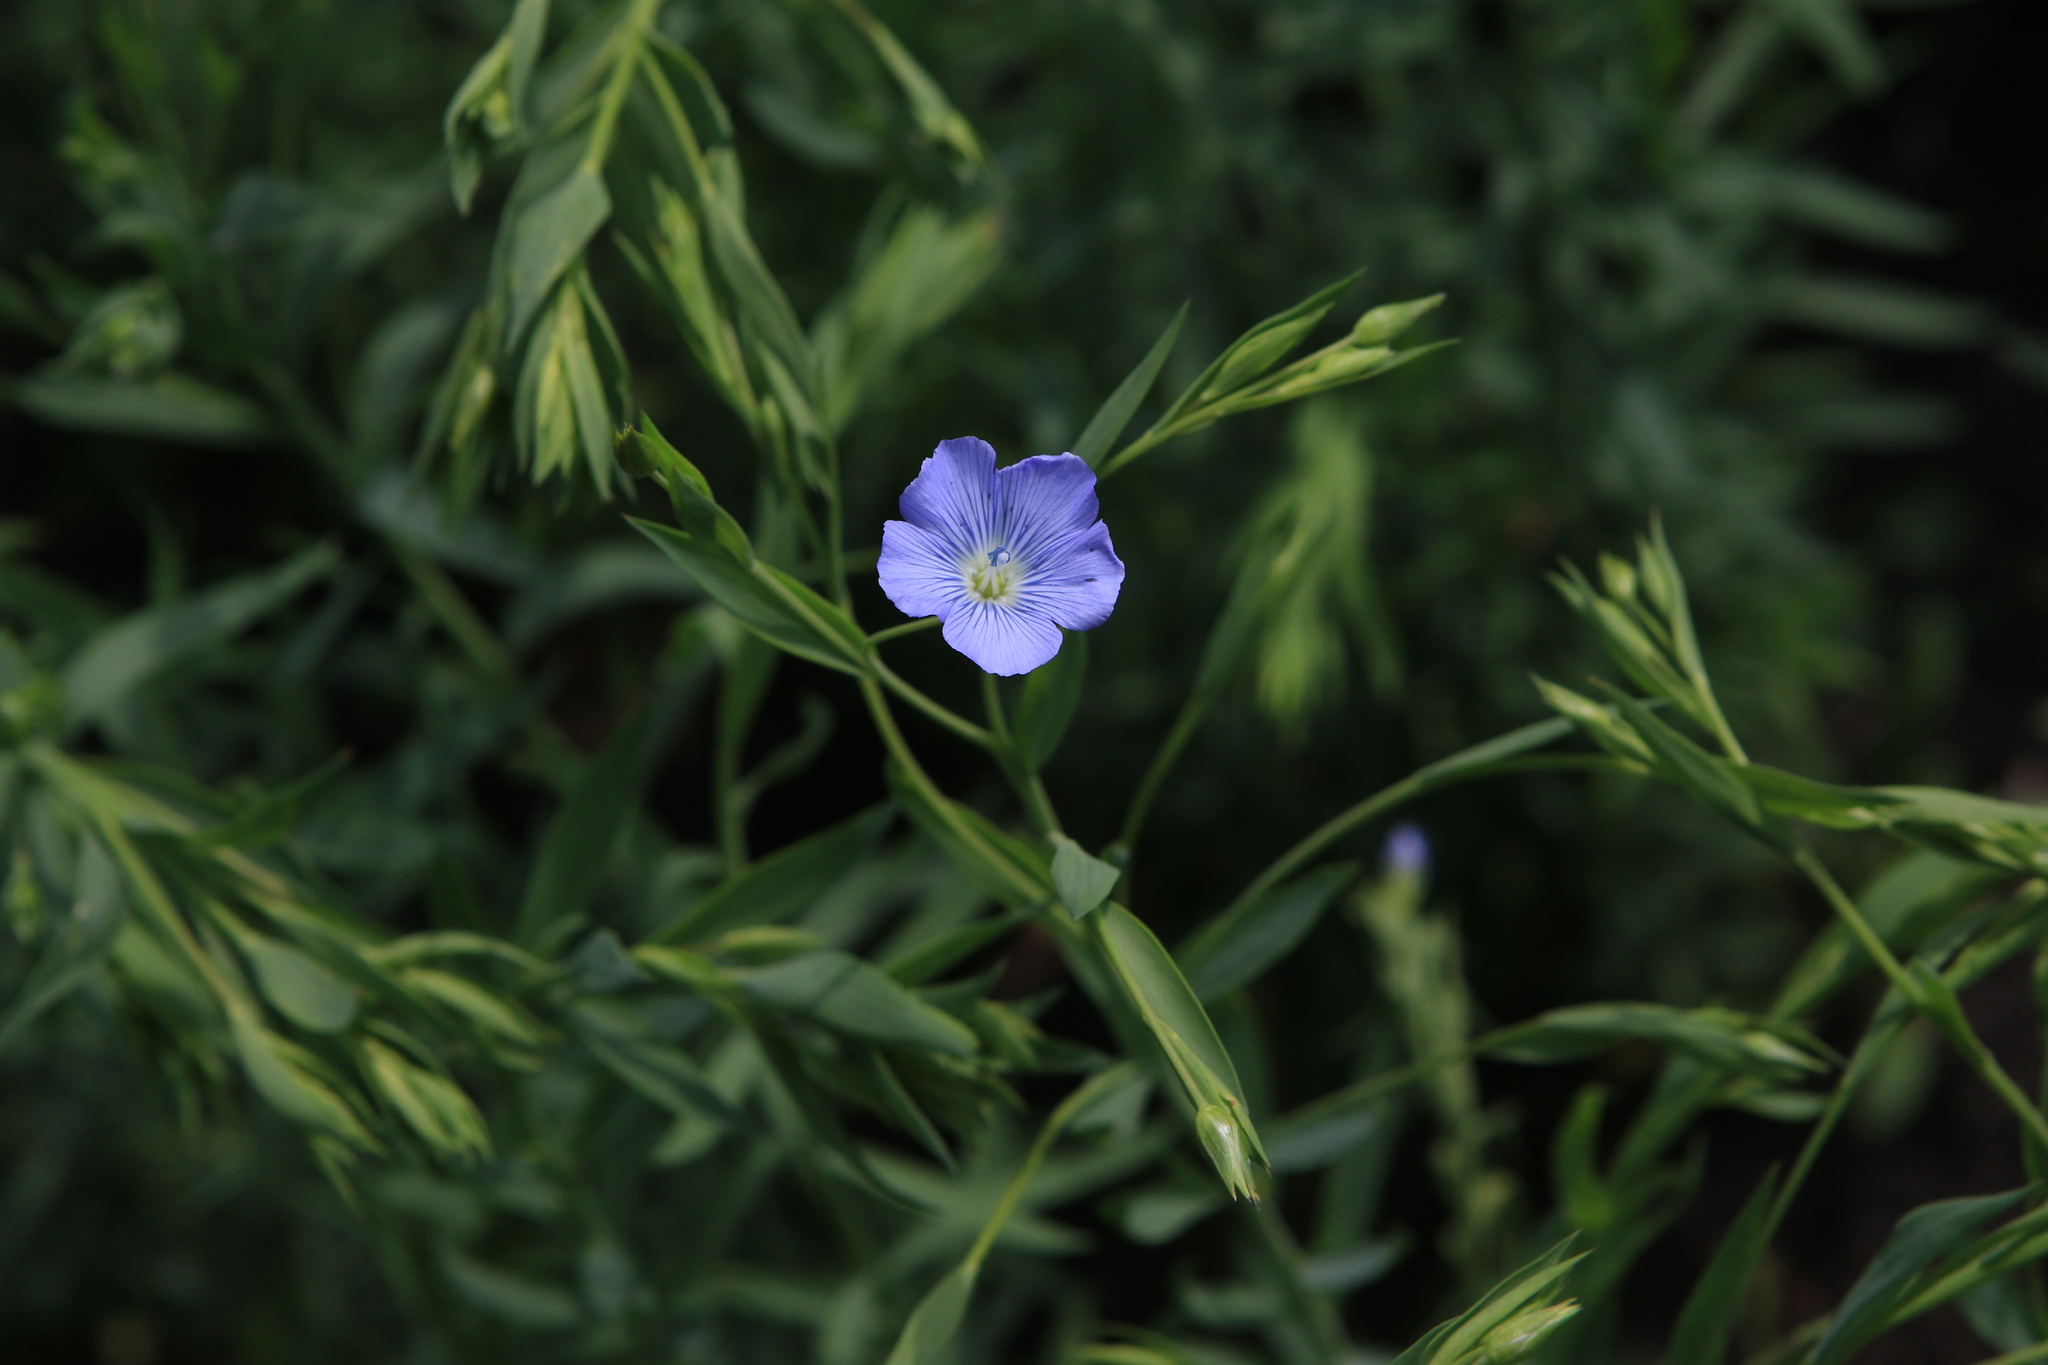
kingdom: Plantae
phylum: Tracheophyta
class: Magnoliopsida
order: Malpighiales
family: Linaceae
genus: Linum
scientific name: Linum usitatissimum
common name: Flax
